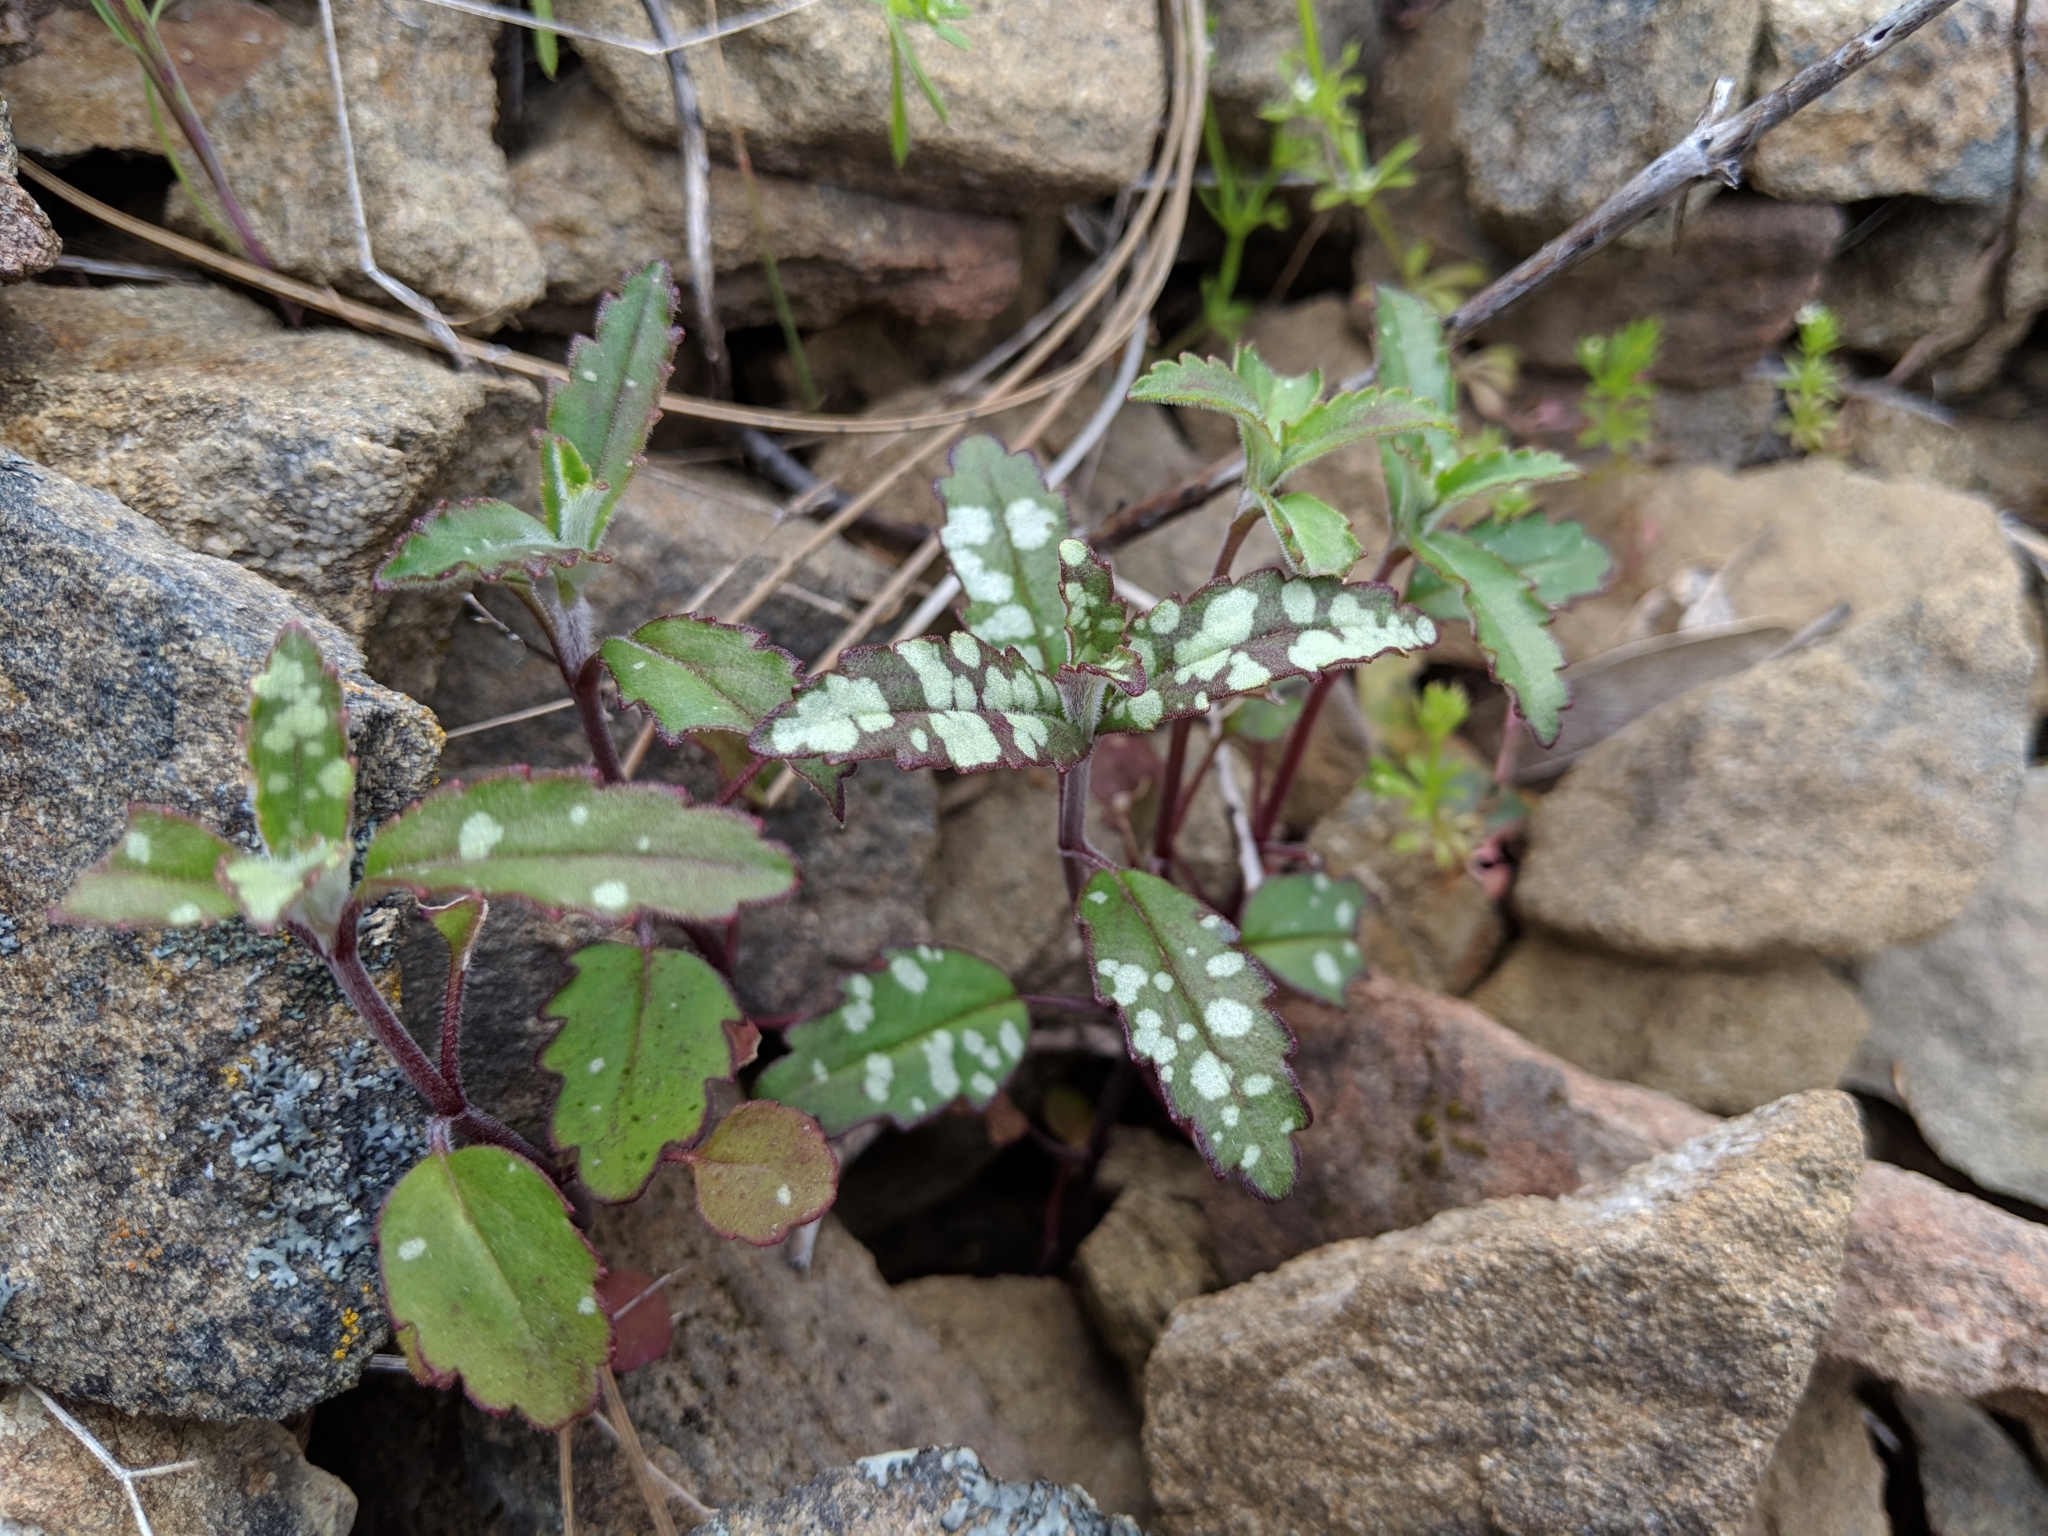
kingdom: Plantae
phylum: Tracheophyta
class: Magnoliopsida
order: Lamiales
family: Plantaginaceae
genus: Collinsia
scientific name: Collinsia tinctoria
